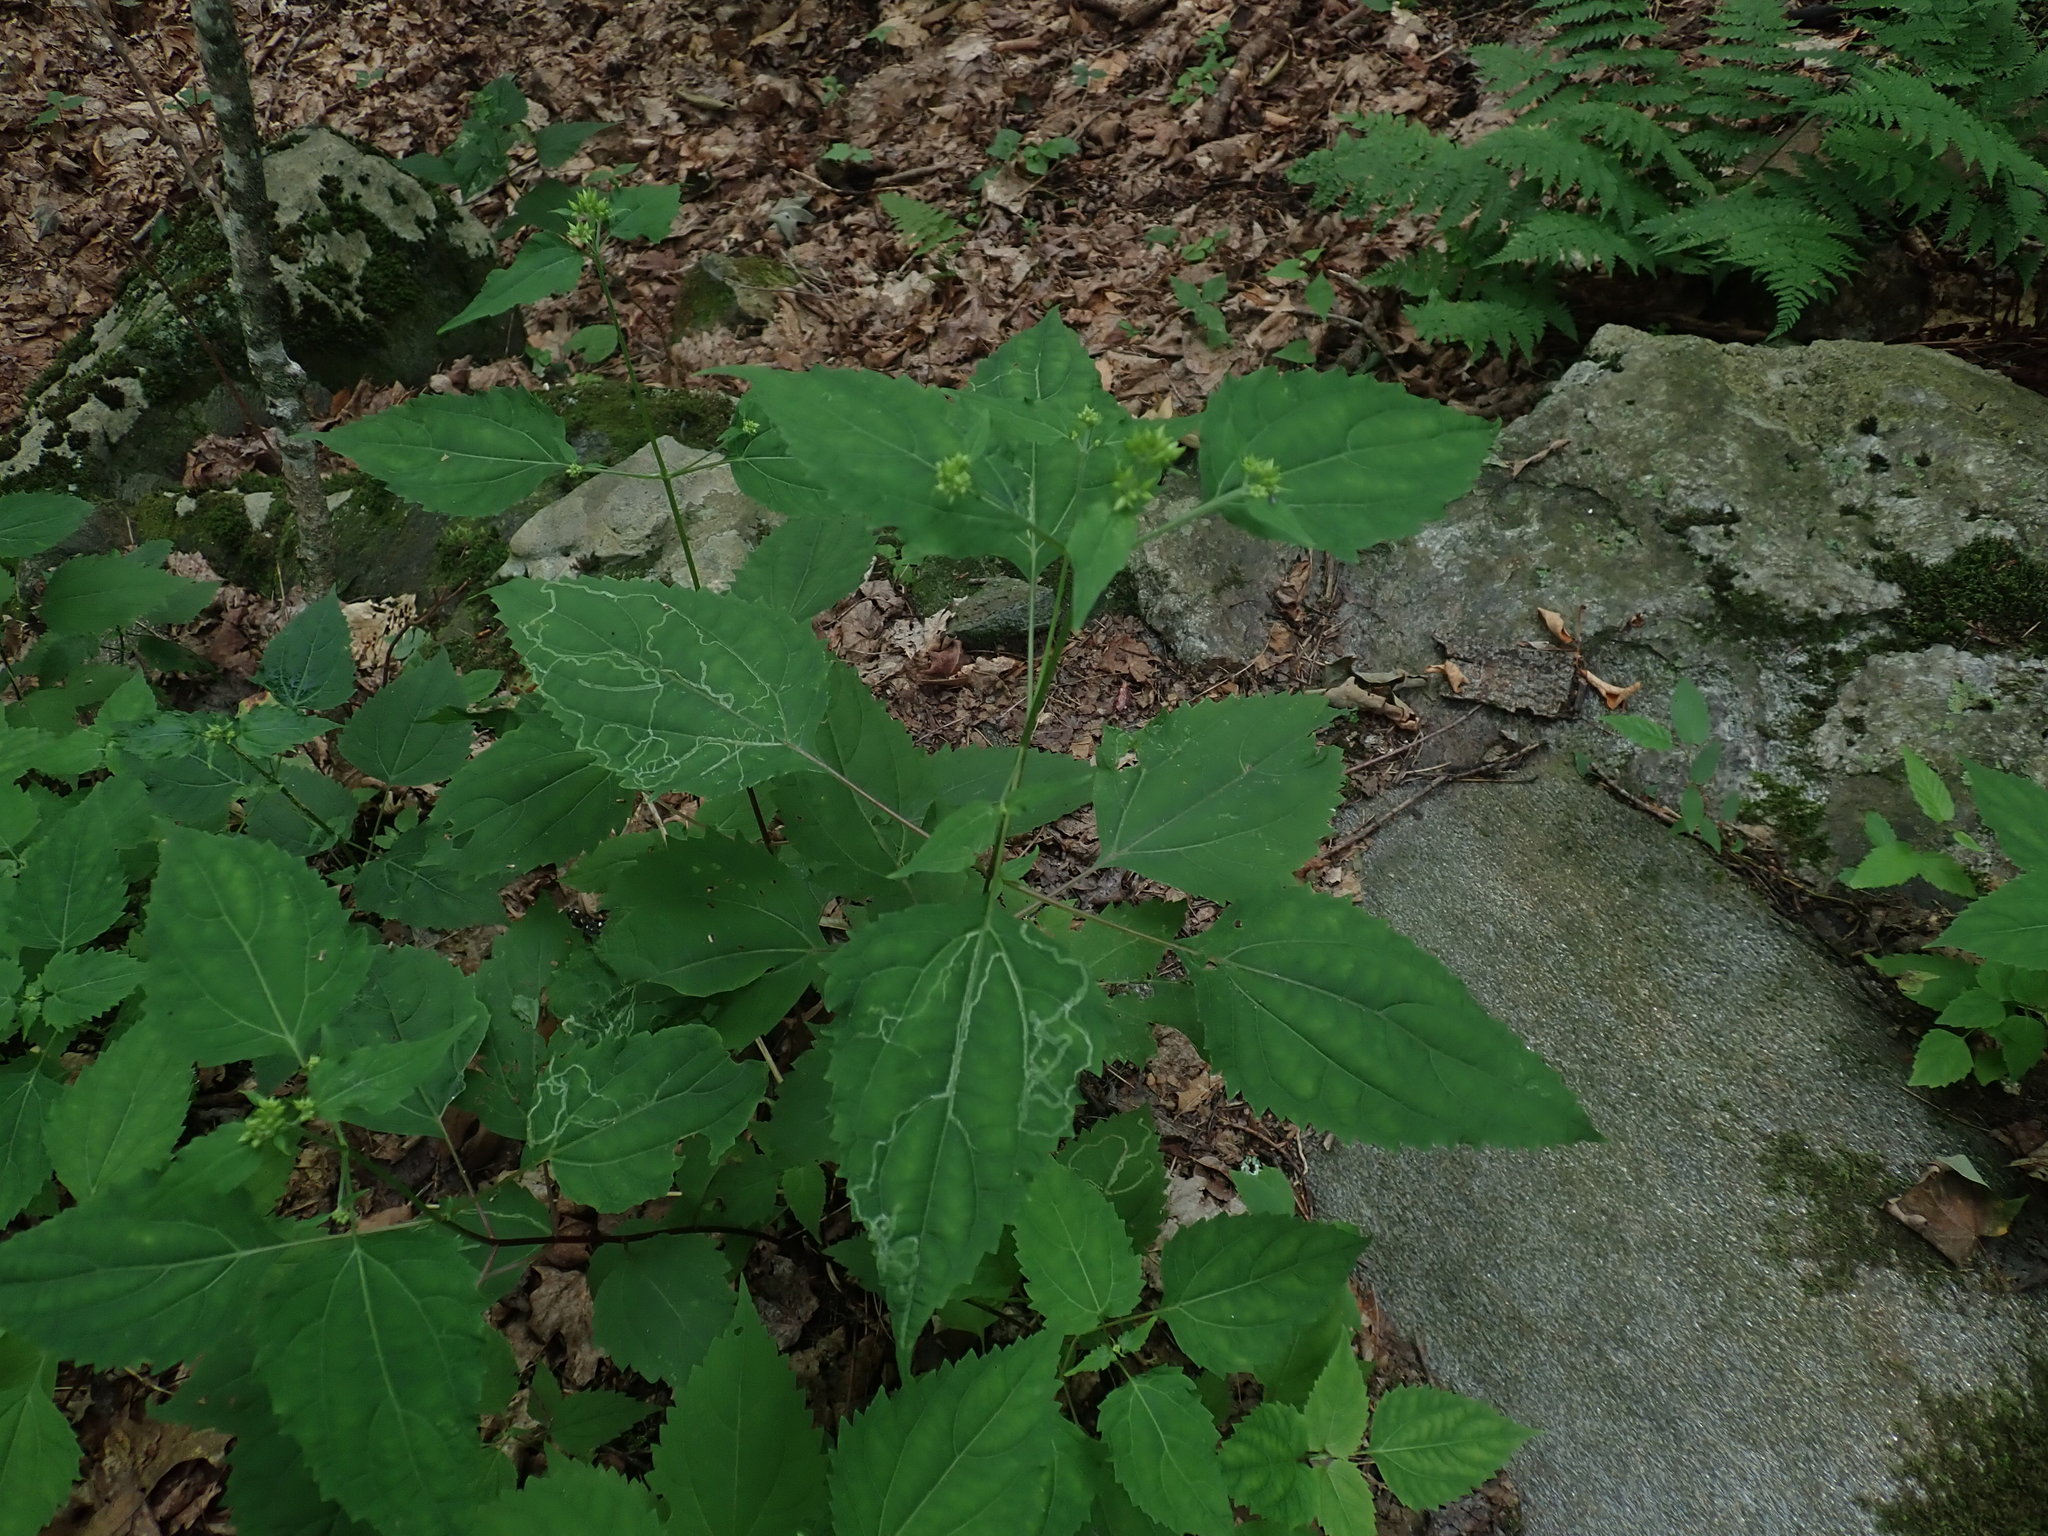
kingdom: Plantae
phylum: Tracheophyta
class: Magnoliopsida
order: Asterales
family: Asteraceae
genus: Ageratina
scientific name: Ageratina altissima
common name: White snakeroot
